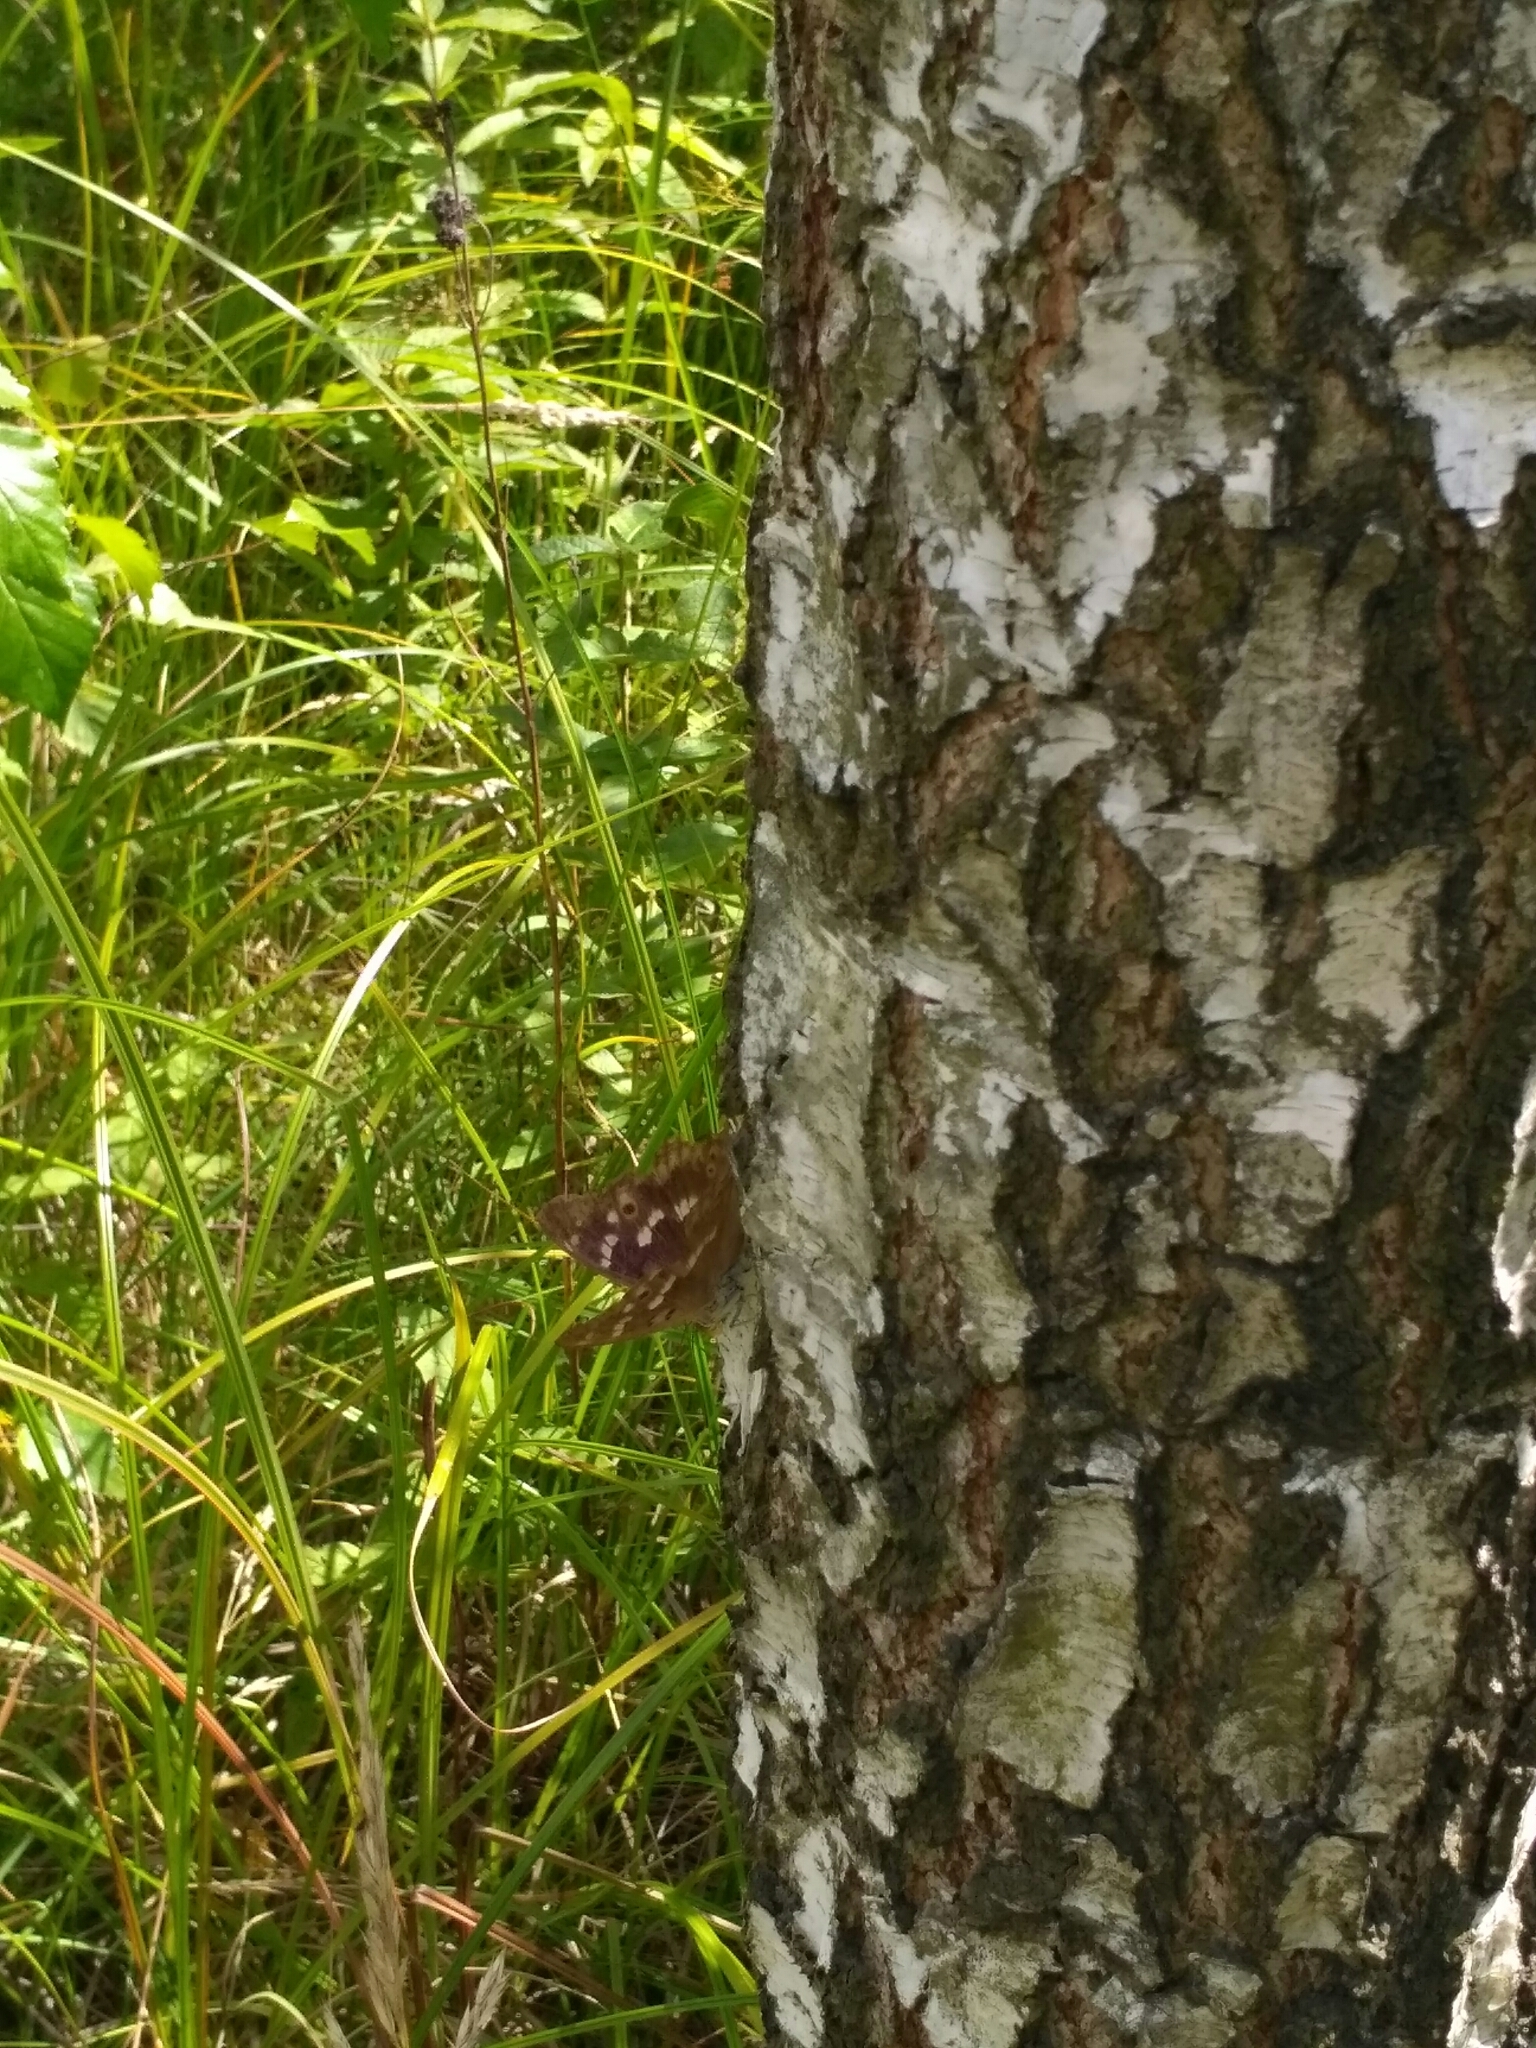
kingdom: Animalia
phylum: Arthropoda
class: Insecta
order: Lepidoptera
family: Nymphalidae
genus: Apatura
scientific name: Apatura ilia
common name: Lesser purple emperor
